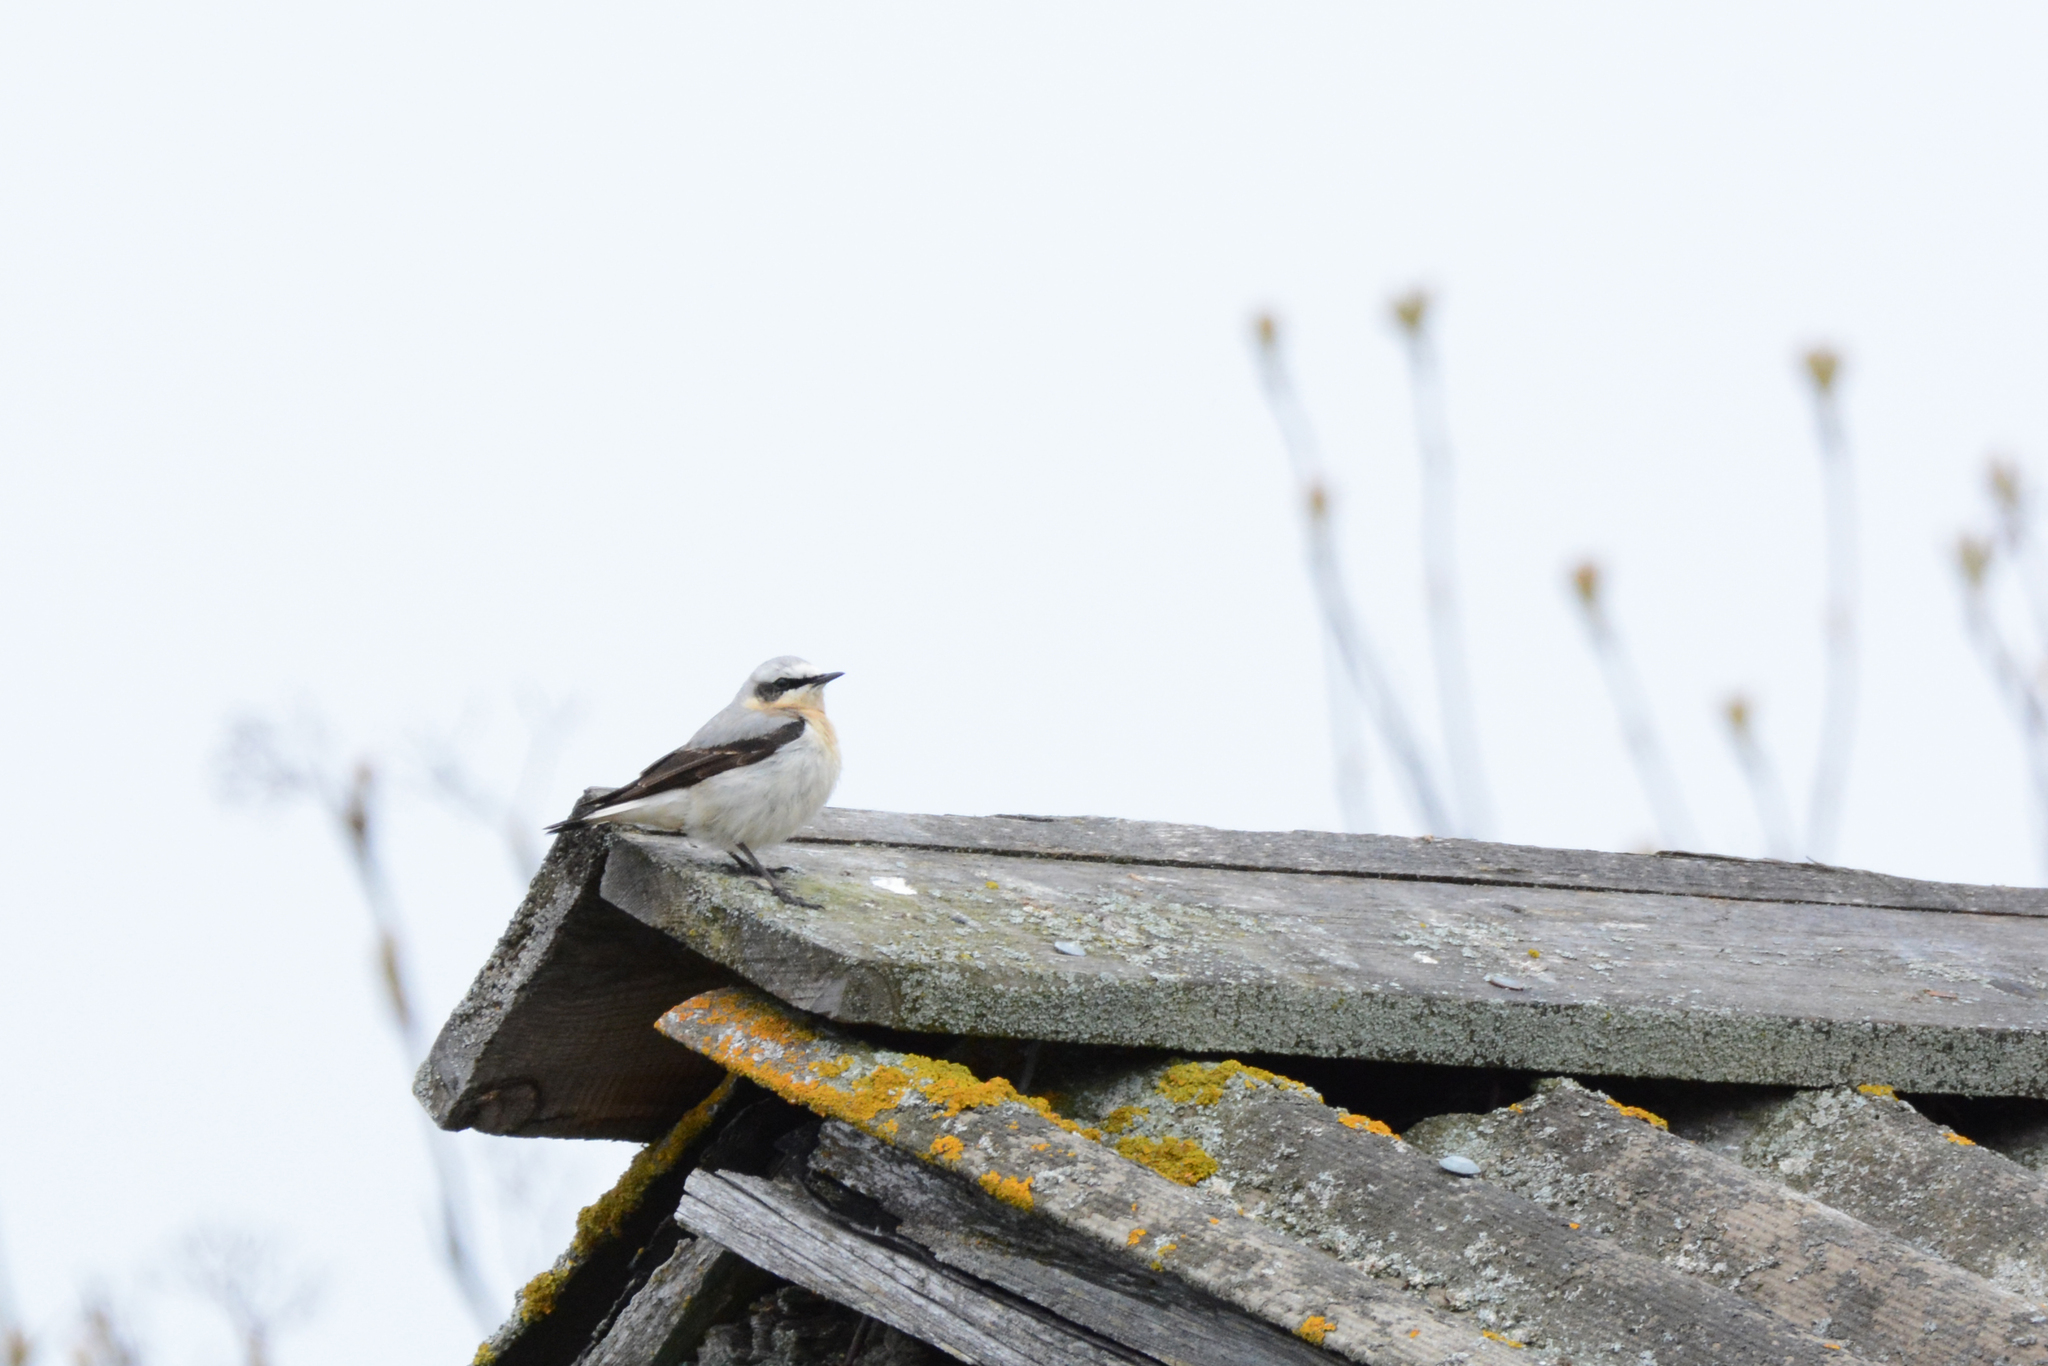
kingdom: Animalia
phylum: Chordata
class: Aves
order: Passeriformes
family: Muscicapidae
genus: Oenanthe
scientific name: Oenanthe oenanthe
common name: Northern wheatear
